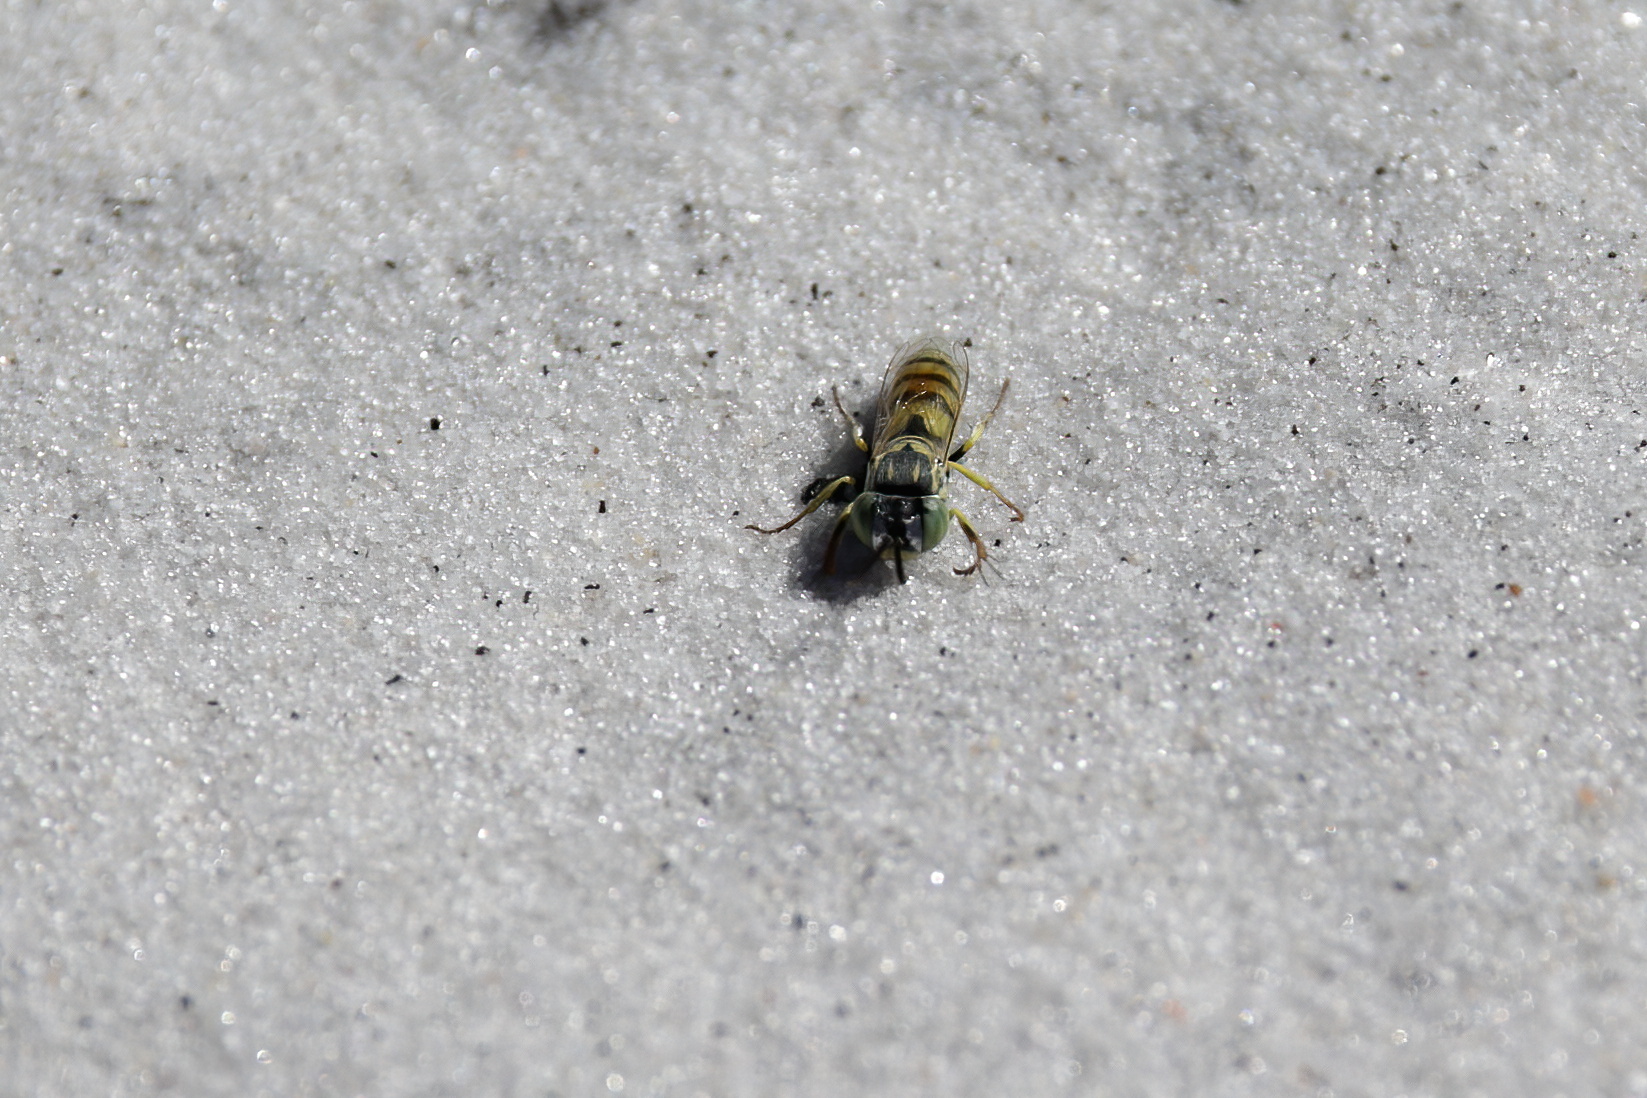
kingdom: Animalia
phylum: Arthropoda
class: Insecta
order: Hymenoptera
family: Crabronidae
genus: Microbembex
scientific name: Microbembex monodonta
